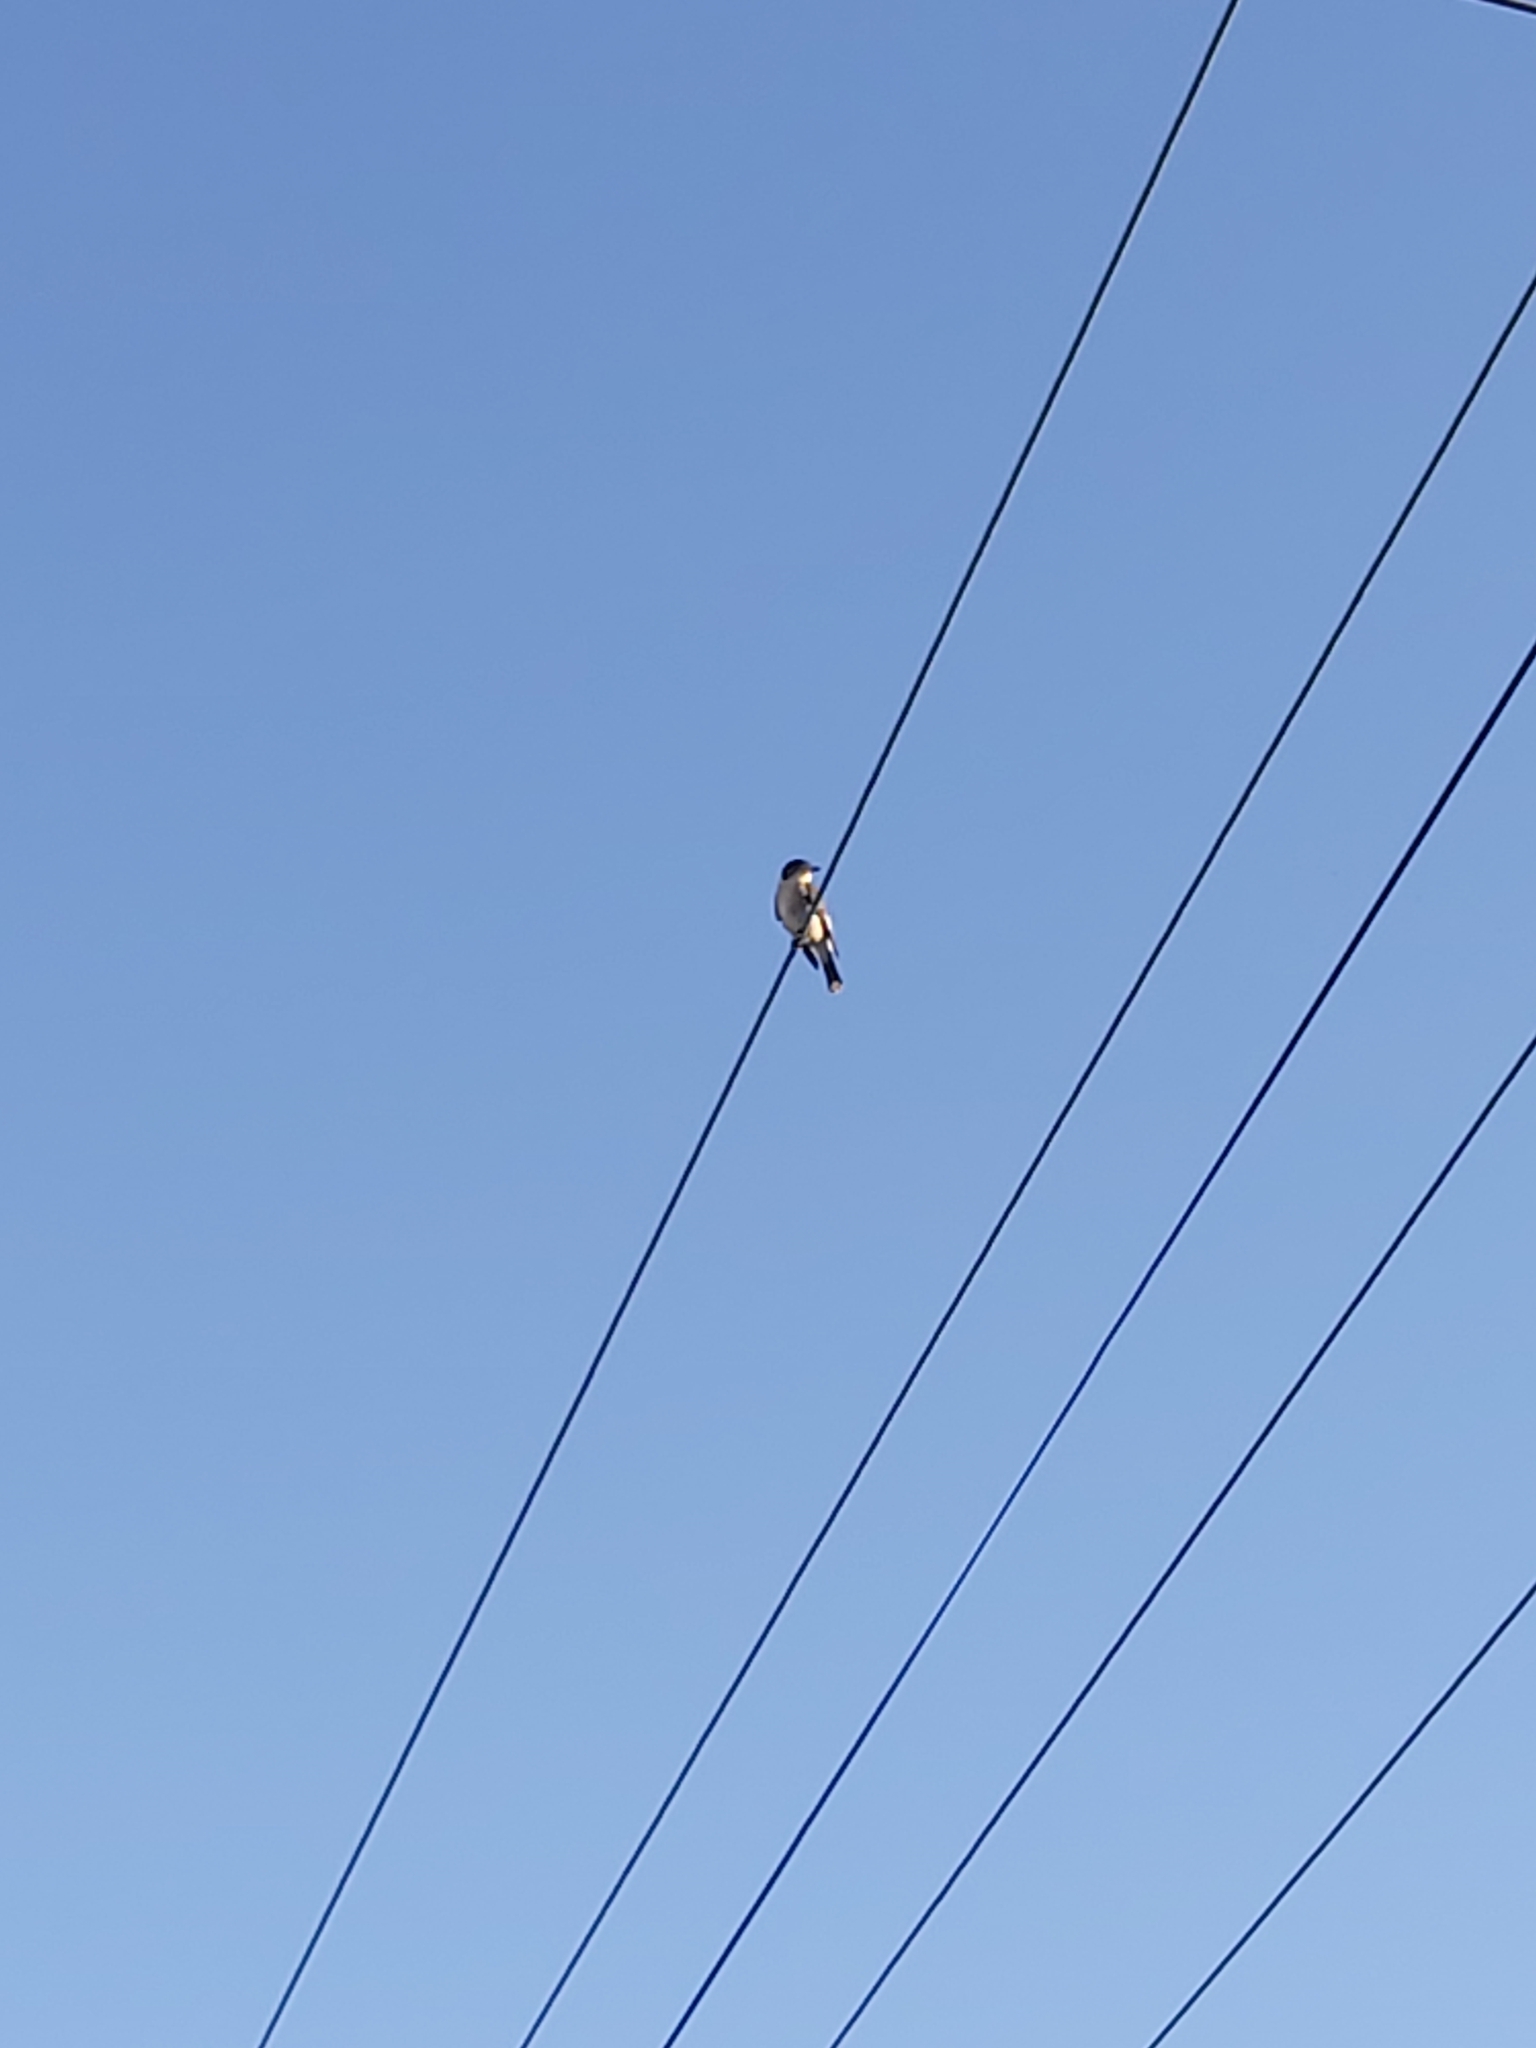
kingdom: Animalia
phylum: Chordata
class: Aves
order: Passeriformes
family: Cracticidae
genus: Cracticus
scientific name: Cracticus torquatus
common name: Grey butcherbird
